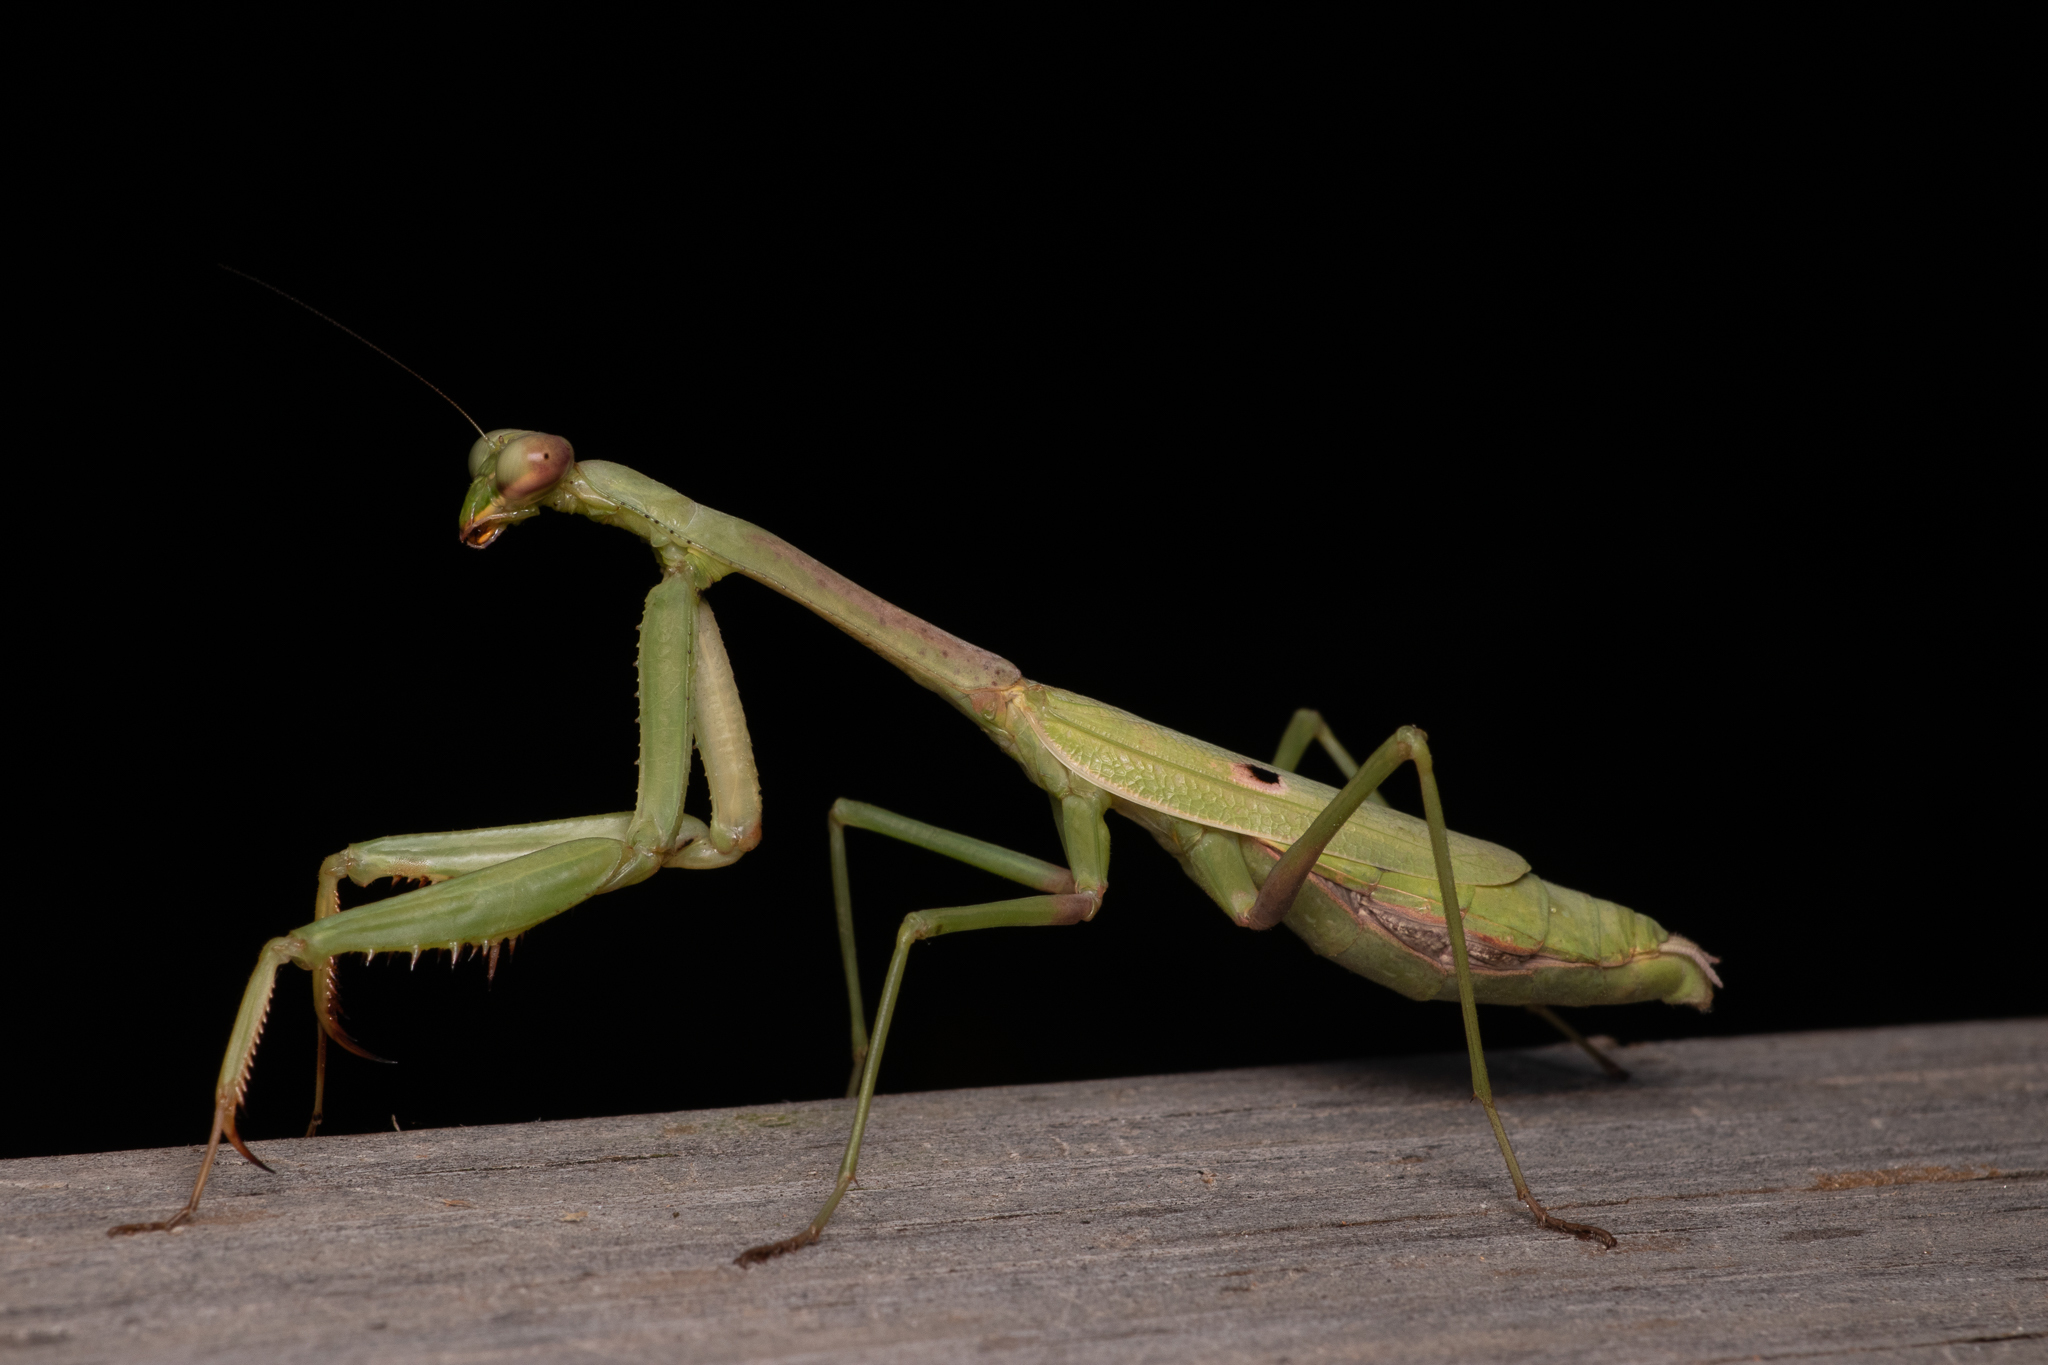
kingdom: Animalia
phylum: Arthropoda
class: Insecta
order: Mantodea
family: Mantidae
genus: Stagmomantis
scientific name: Stagmomantis carolina
